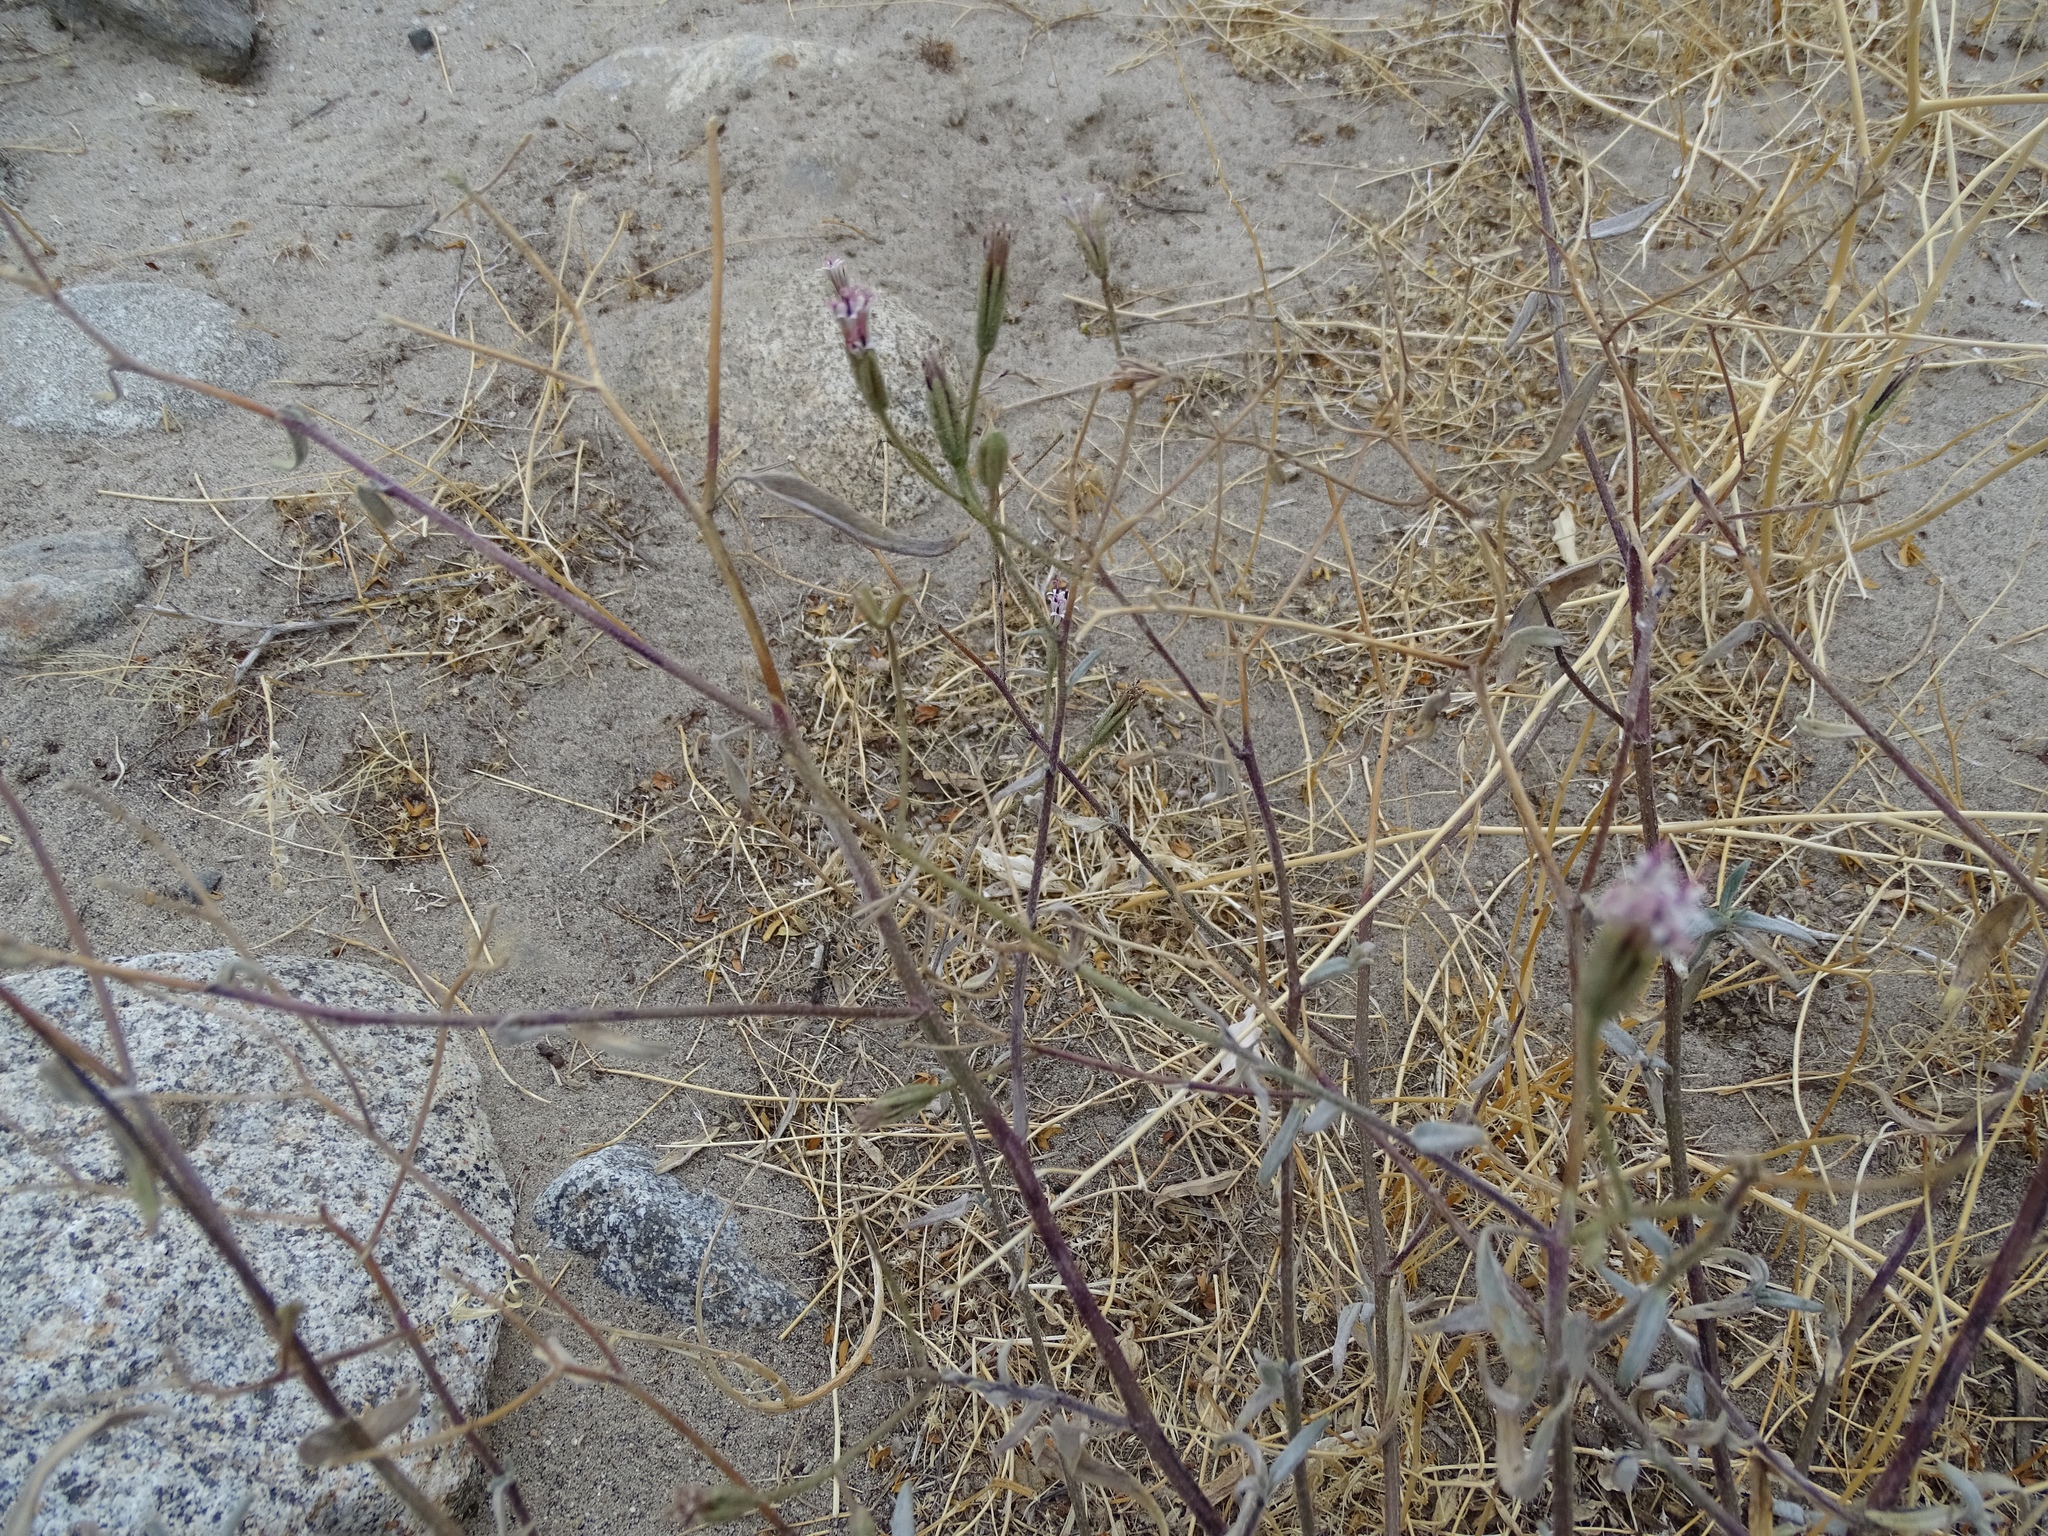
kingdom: Plantae
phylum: Tracheophyta
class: Magnoliopsida
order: Asterales
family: Asteraceae
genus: Palafoxia
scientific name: Palafoxia arida
